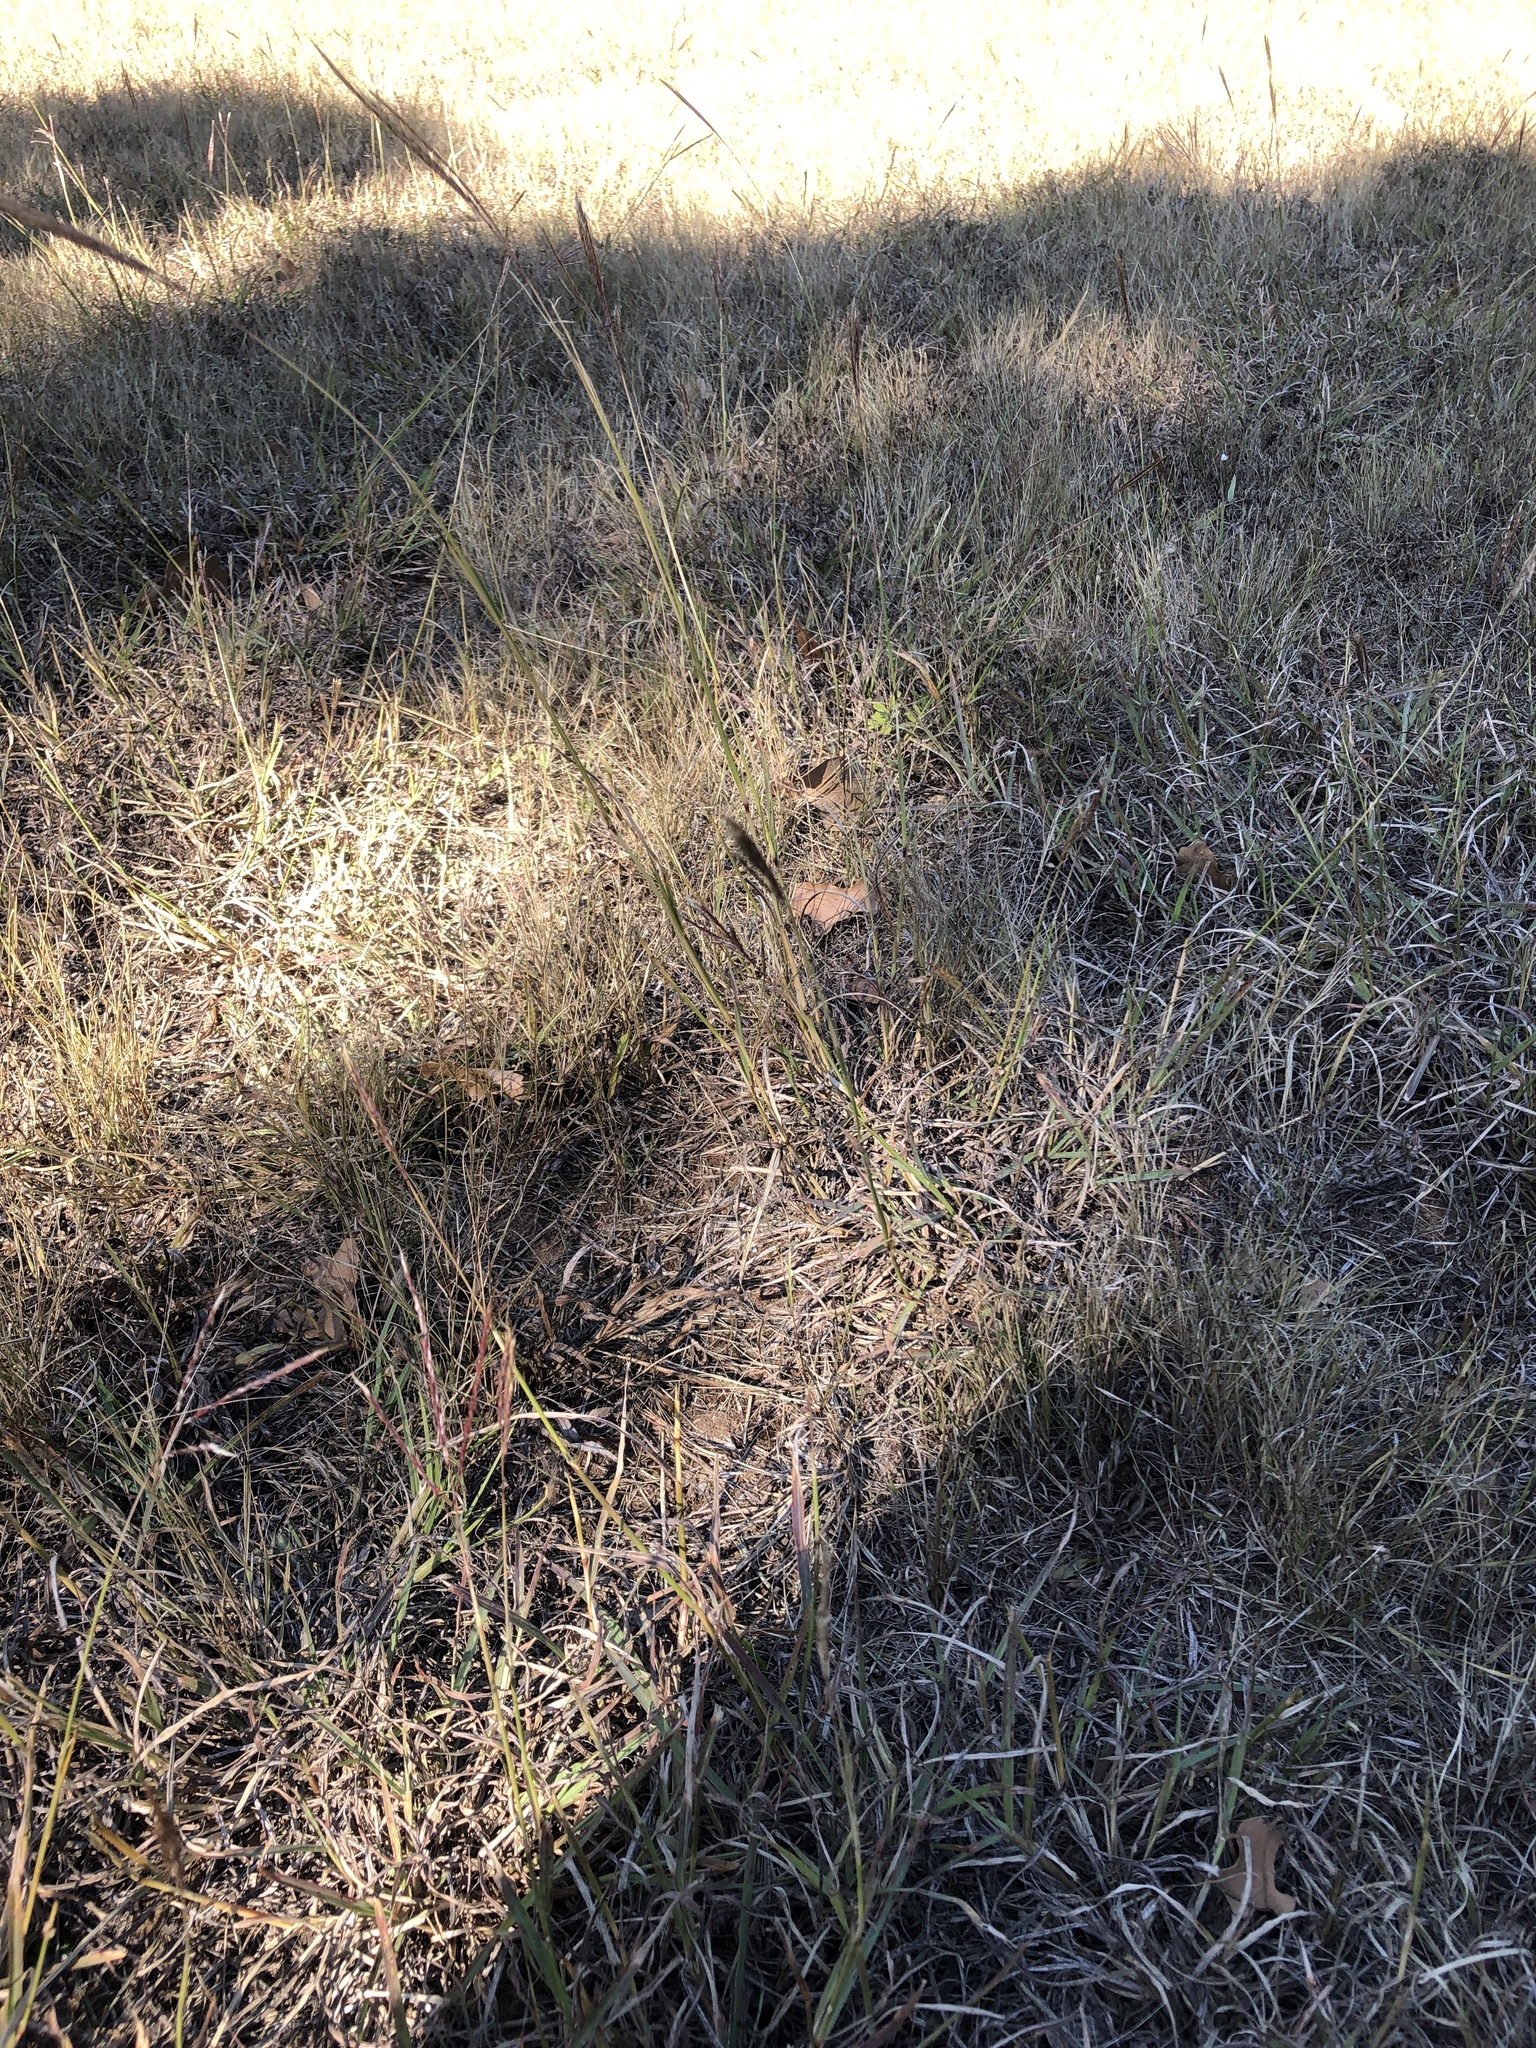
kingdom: Plantae
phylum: Tracheophyta
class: Liliopsida
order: Poales
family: Poaceae
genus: Bothriochloa
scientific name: Bothriochloa ischaemum
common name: Yellow bluestem
